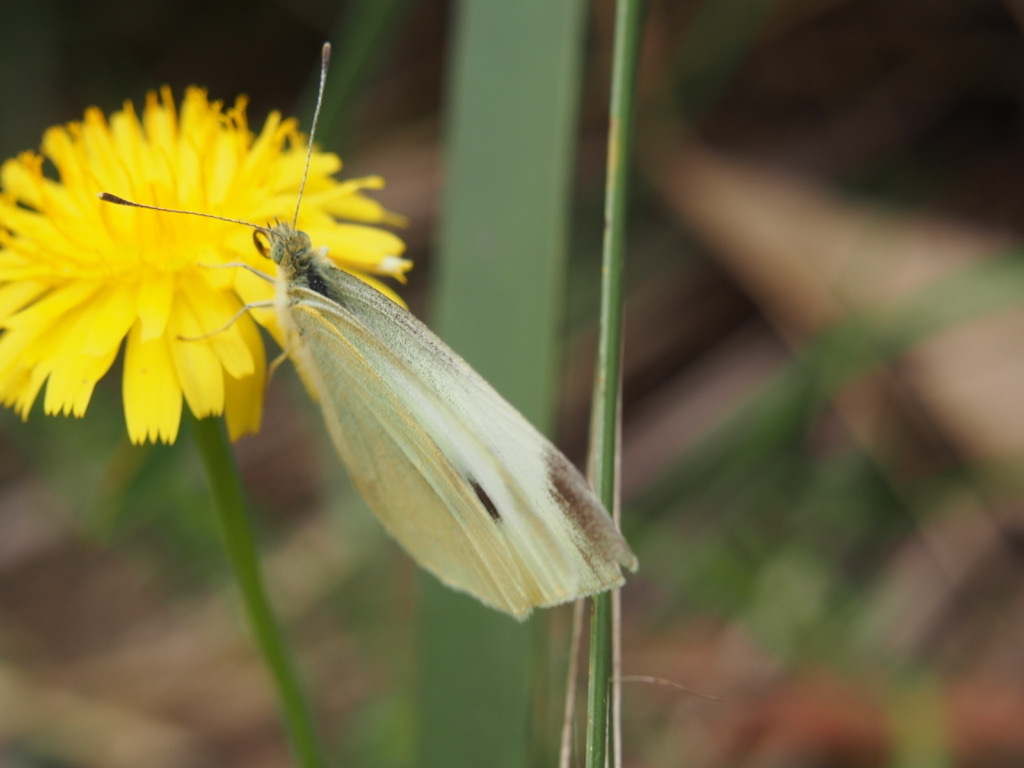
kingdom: Animalia
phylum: Arthropoda
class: Insecta
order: Lepidoptera
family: Pieridae
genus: Pieris
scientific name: Pieris rapae
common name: Small white
